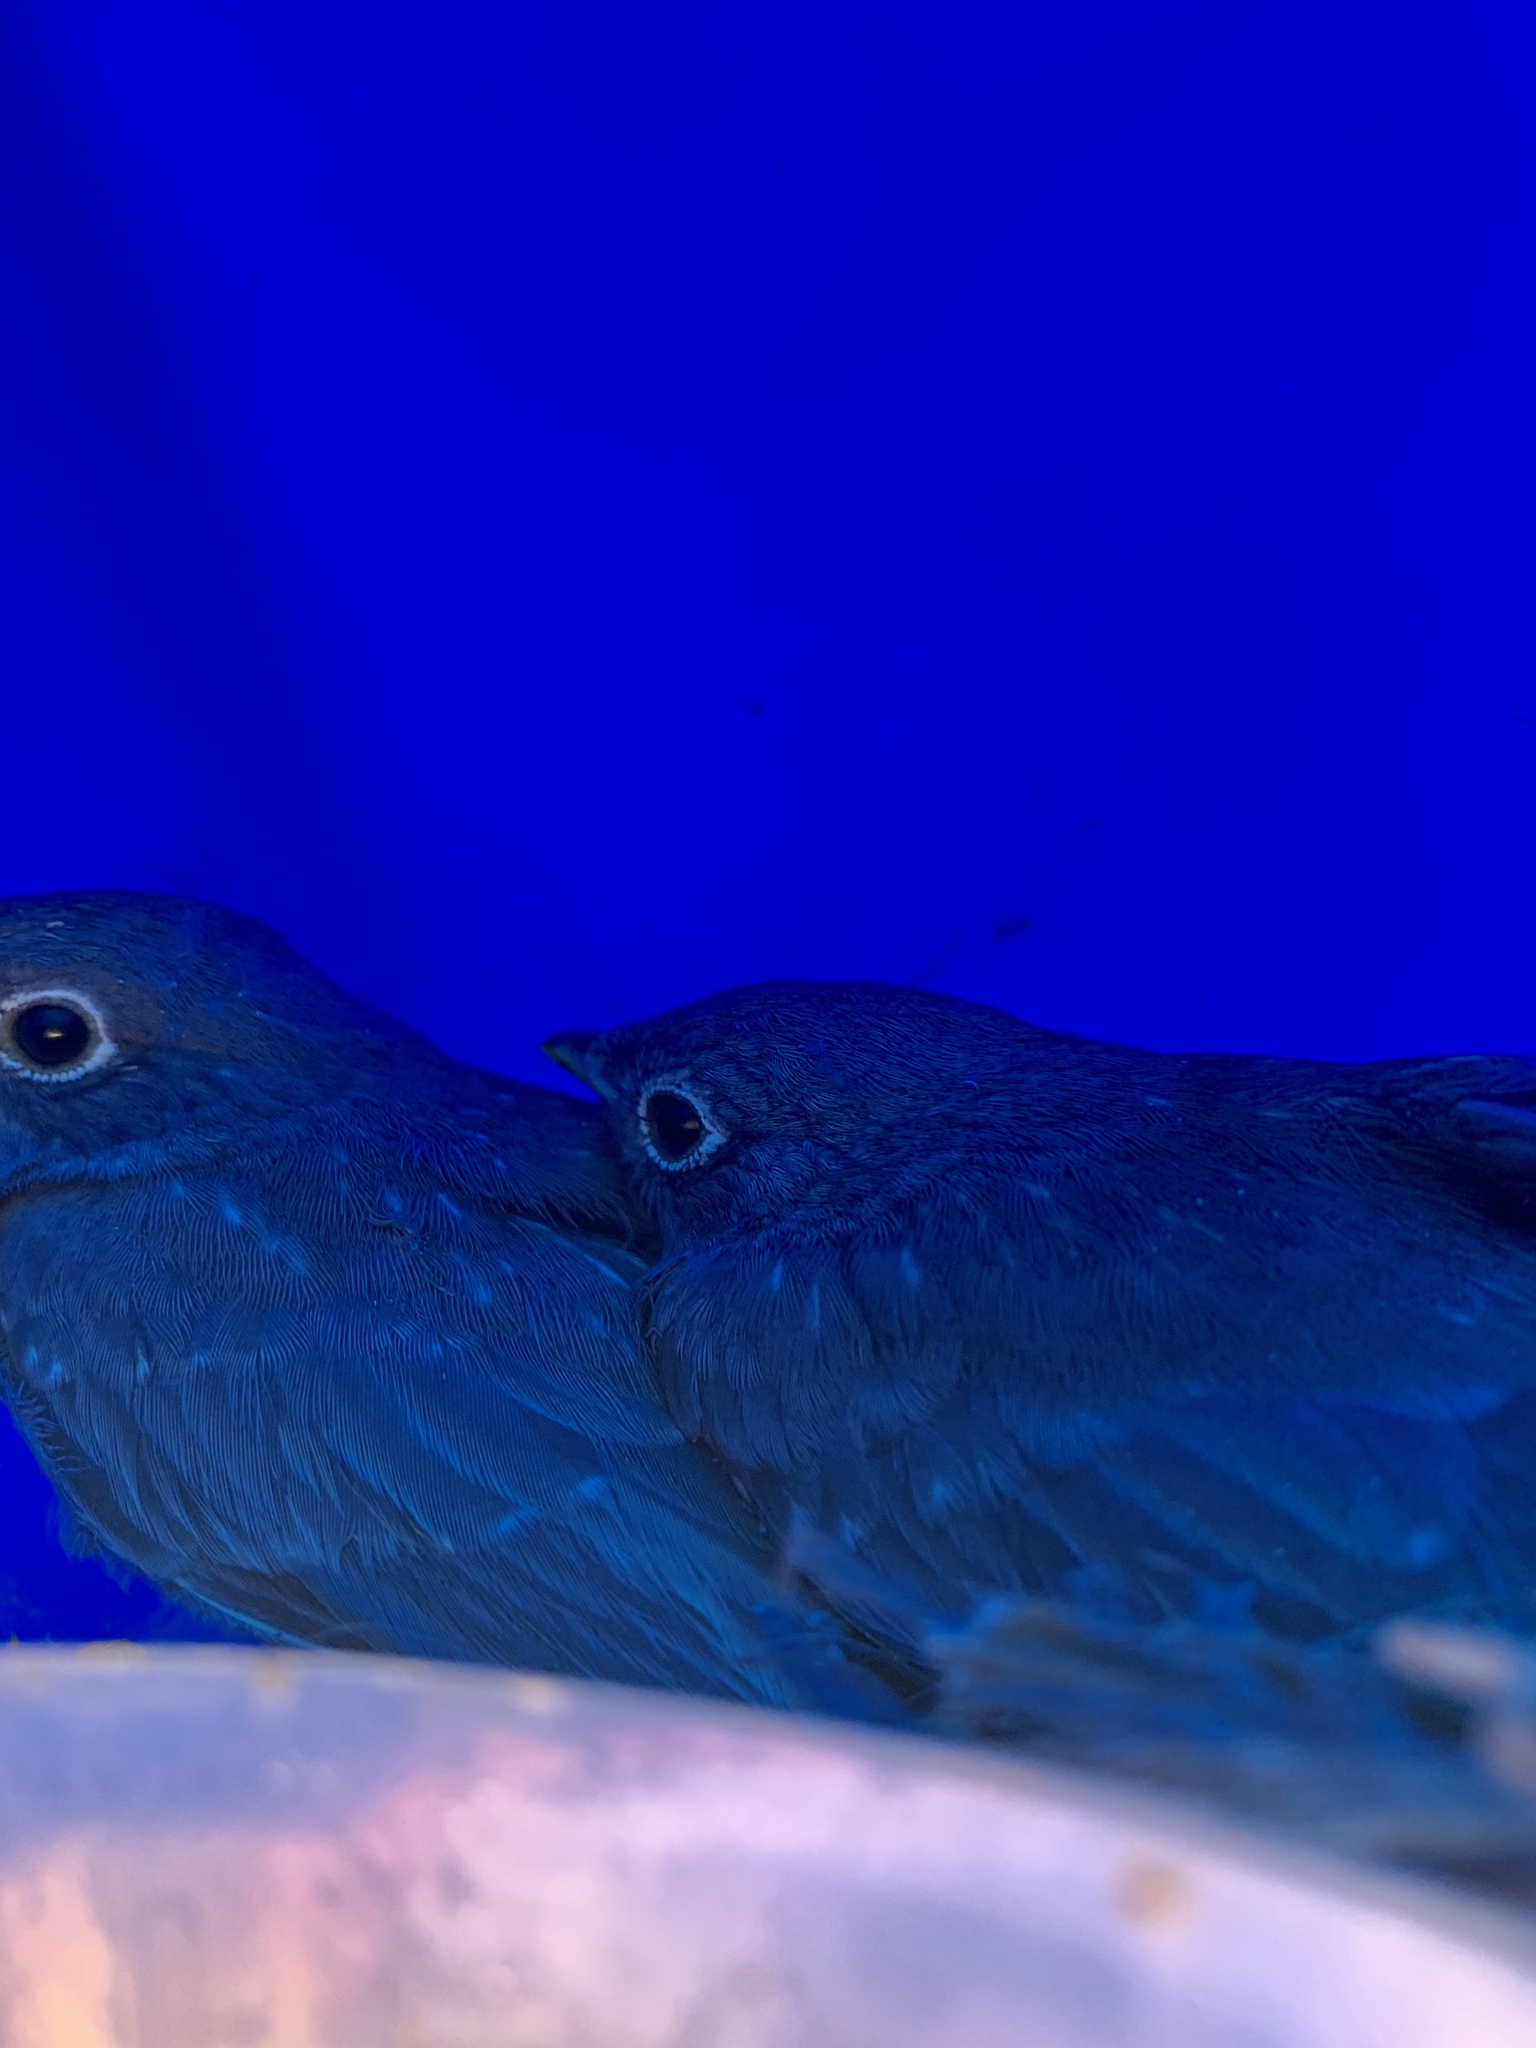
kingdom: Animalia
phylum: Chordata
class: Aves
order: Passeriformes
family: Turdidae
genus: Sialia
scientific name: Sialia mexicana
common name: Western bluebird
